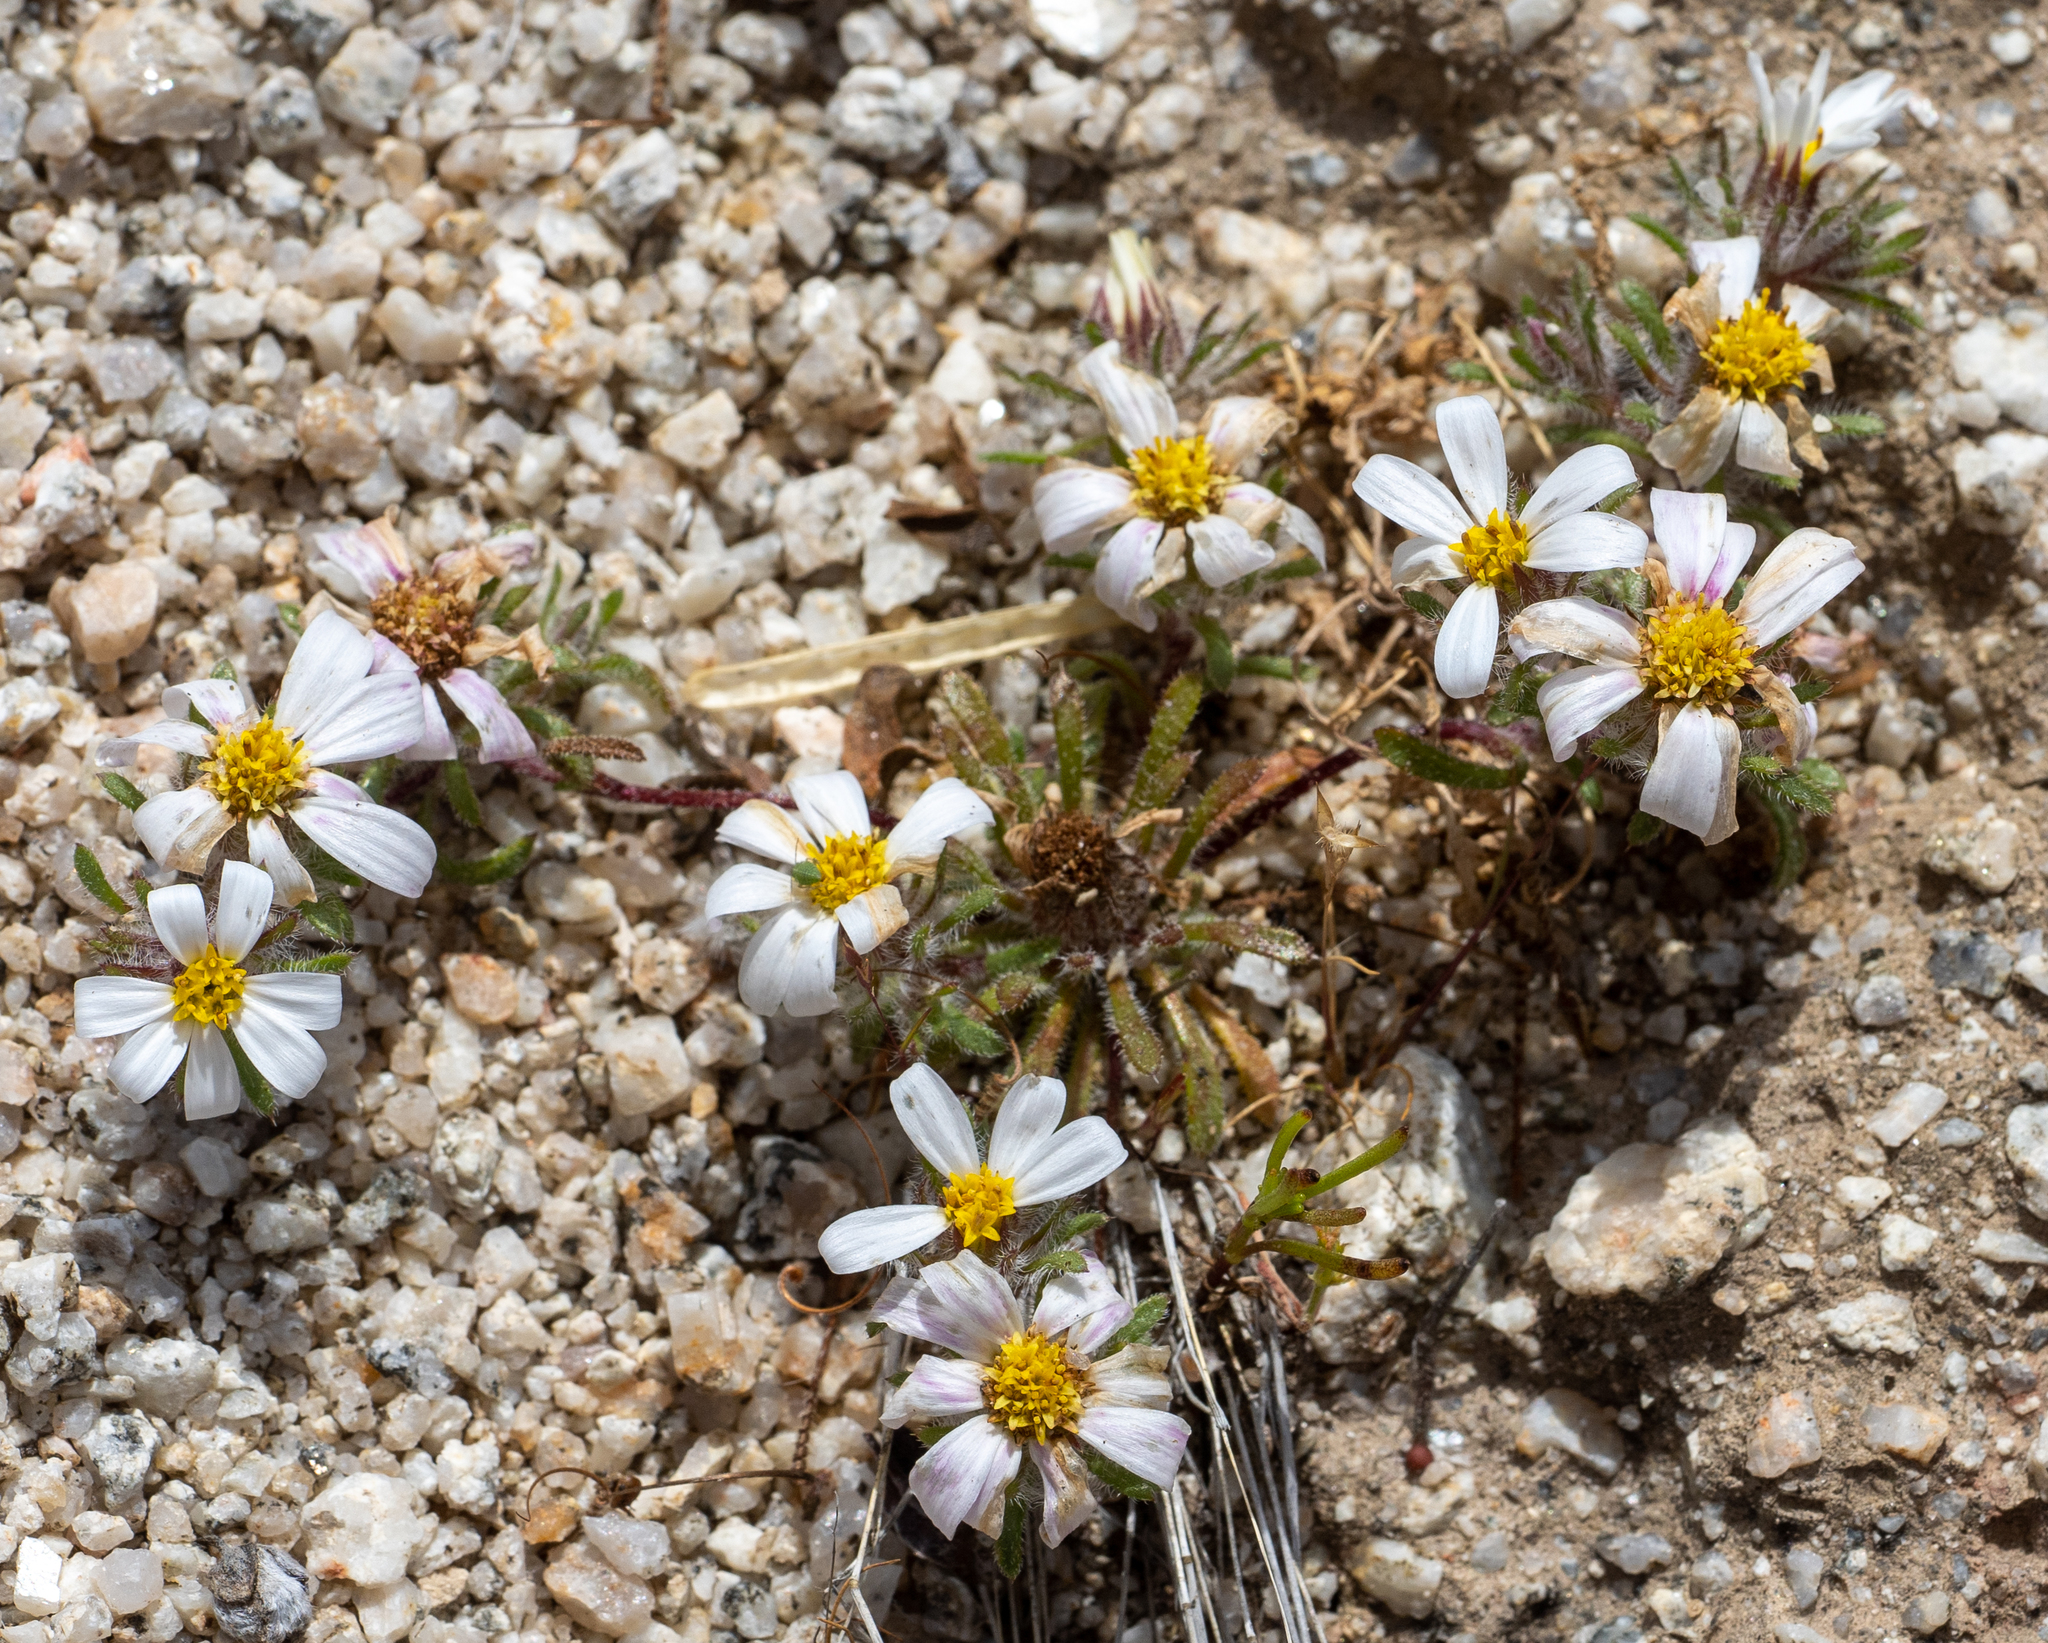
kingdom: Plantae
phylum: Tracheophyta
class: Magnoliopsida
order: Asterales
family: Asteraceae
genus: Monoptilon
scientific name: Monoptilon bellioides
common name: Bristly desertstar
